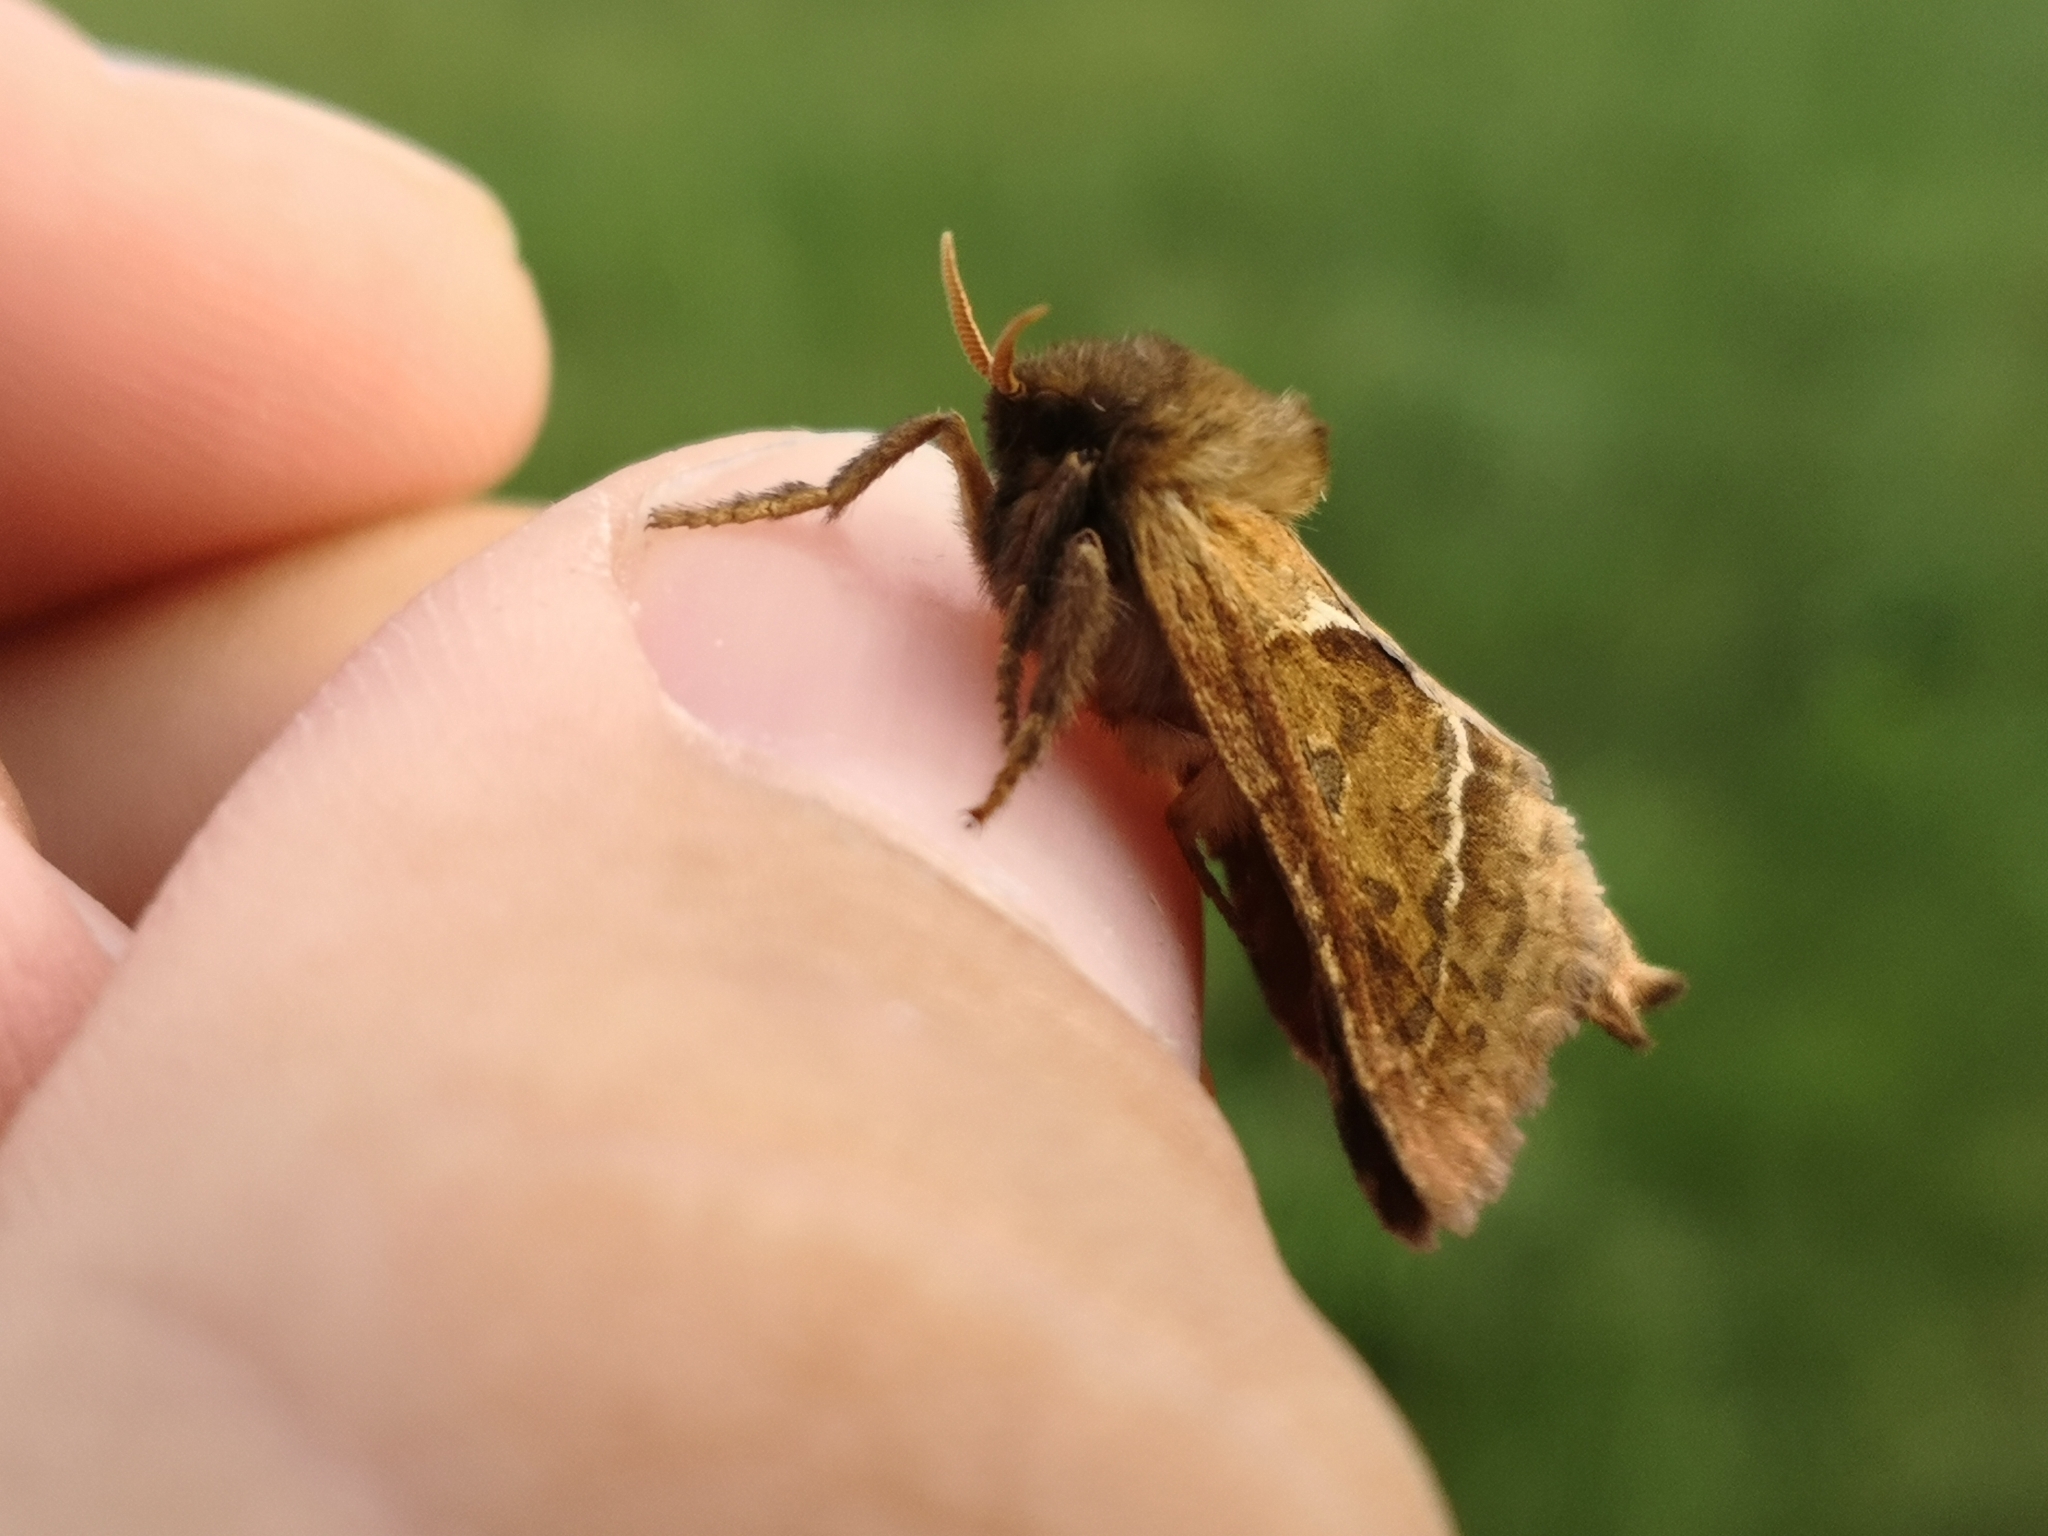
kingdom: Animalia
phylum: Arthropoda
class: Insecta
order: Lepidoptera
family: Hepialidae
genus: Triodia
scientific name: Triodia sylvina
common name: Orange swift
